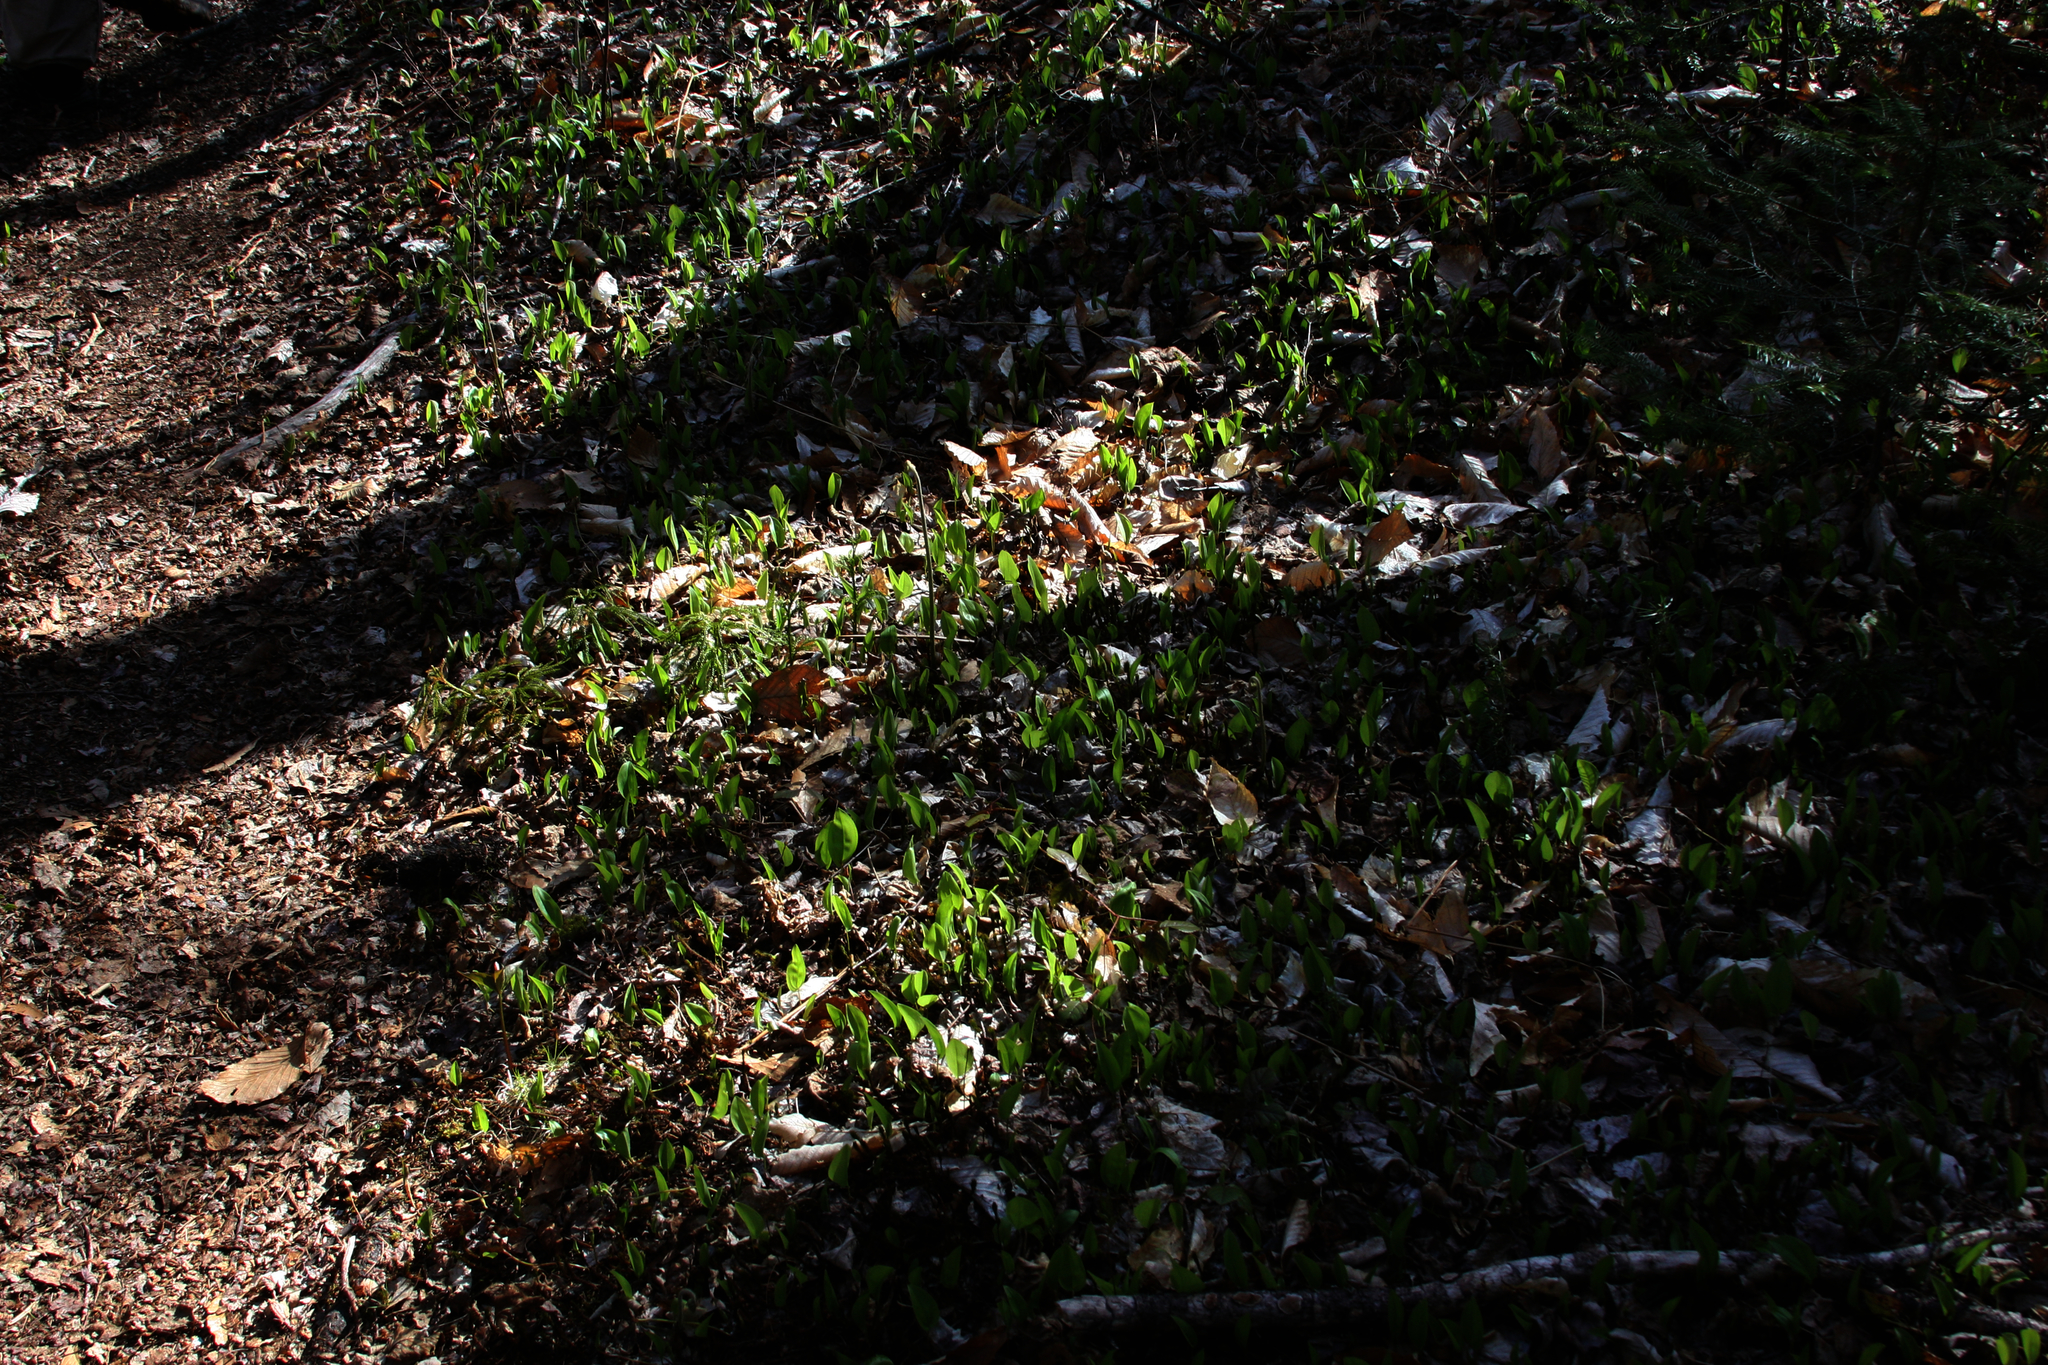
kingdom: Plantae
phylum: Tracheophyta
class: Liliopsida
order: Asparagales
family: Asparagaceae
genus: Maianthemum
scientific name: Maianthemum canadense
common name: False lily-of-the-valley
